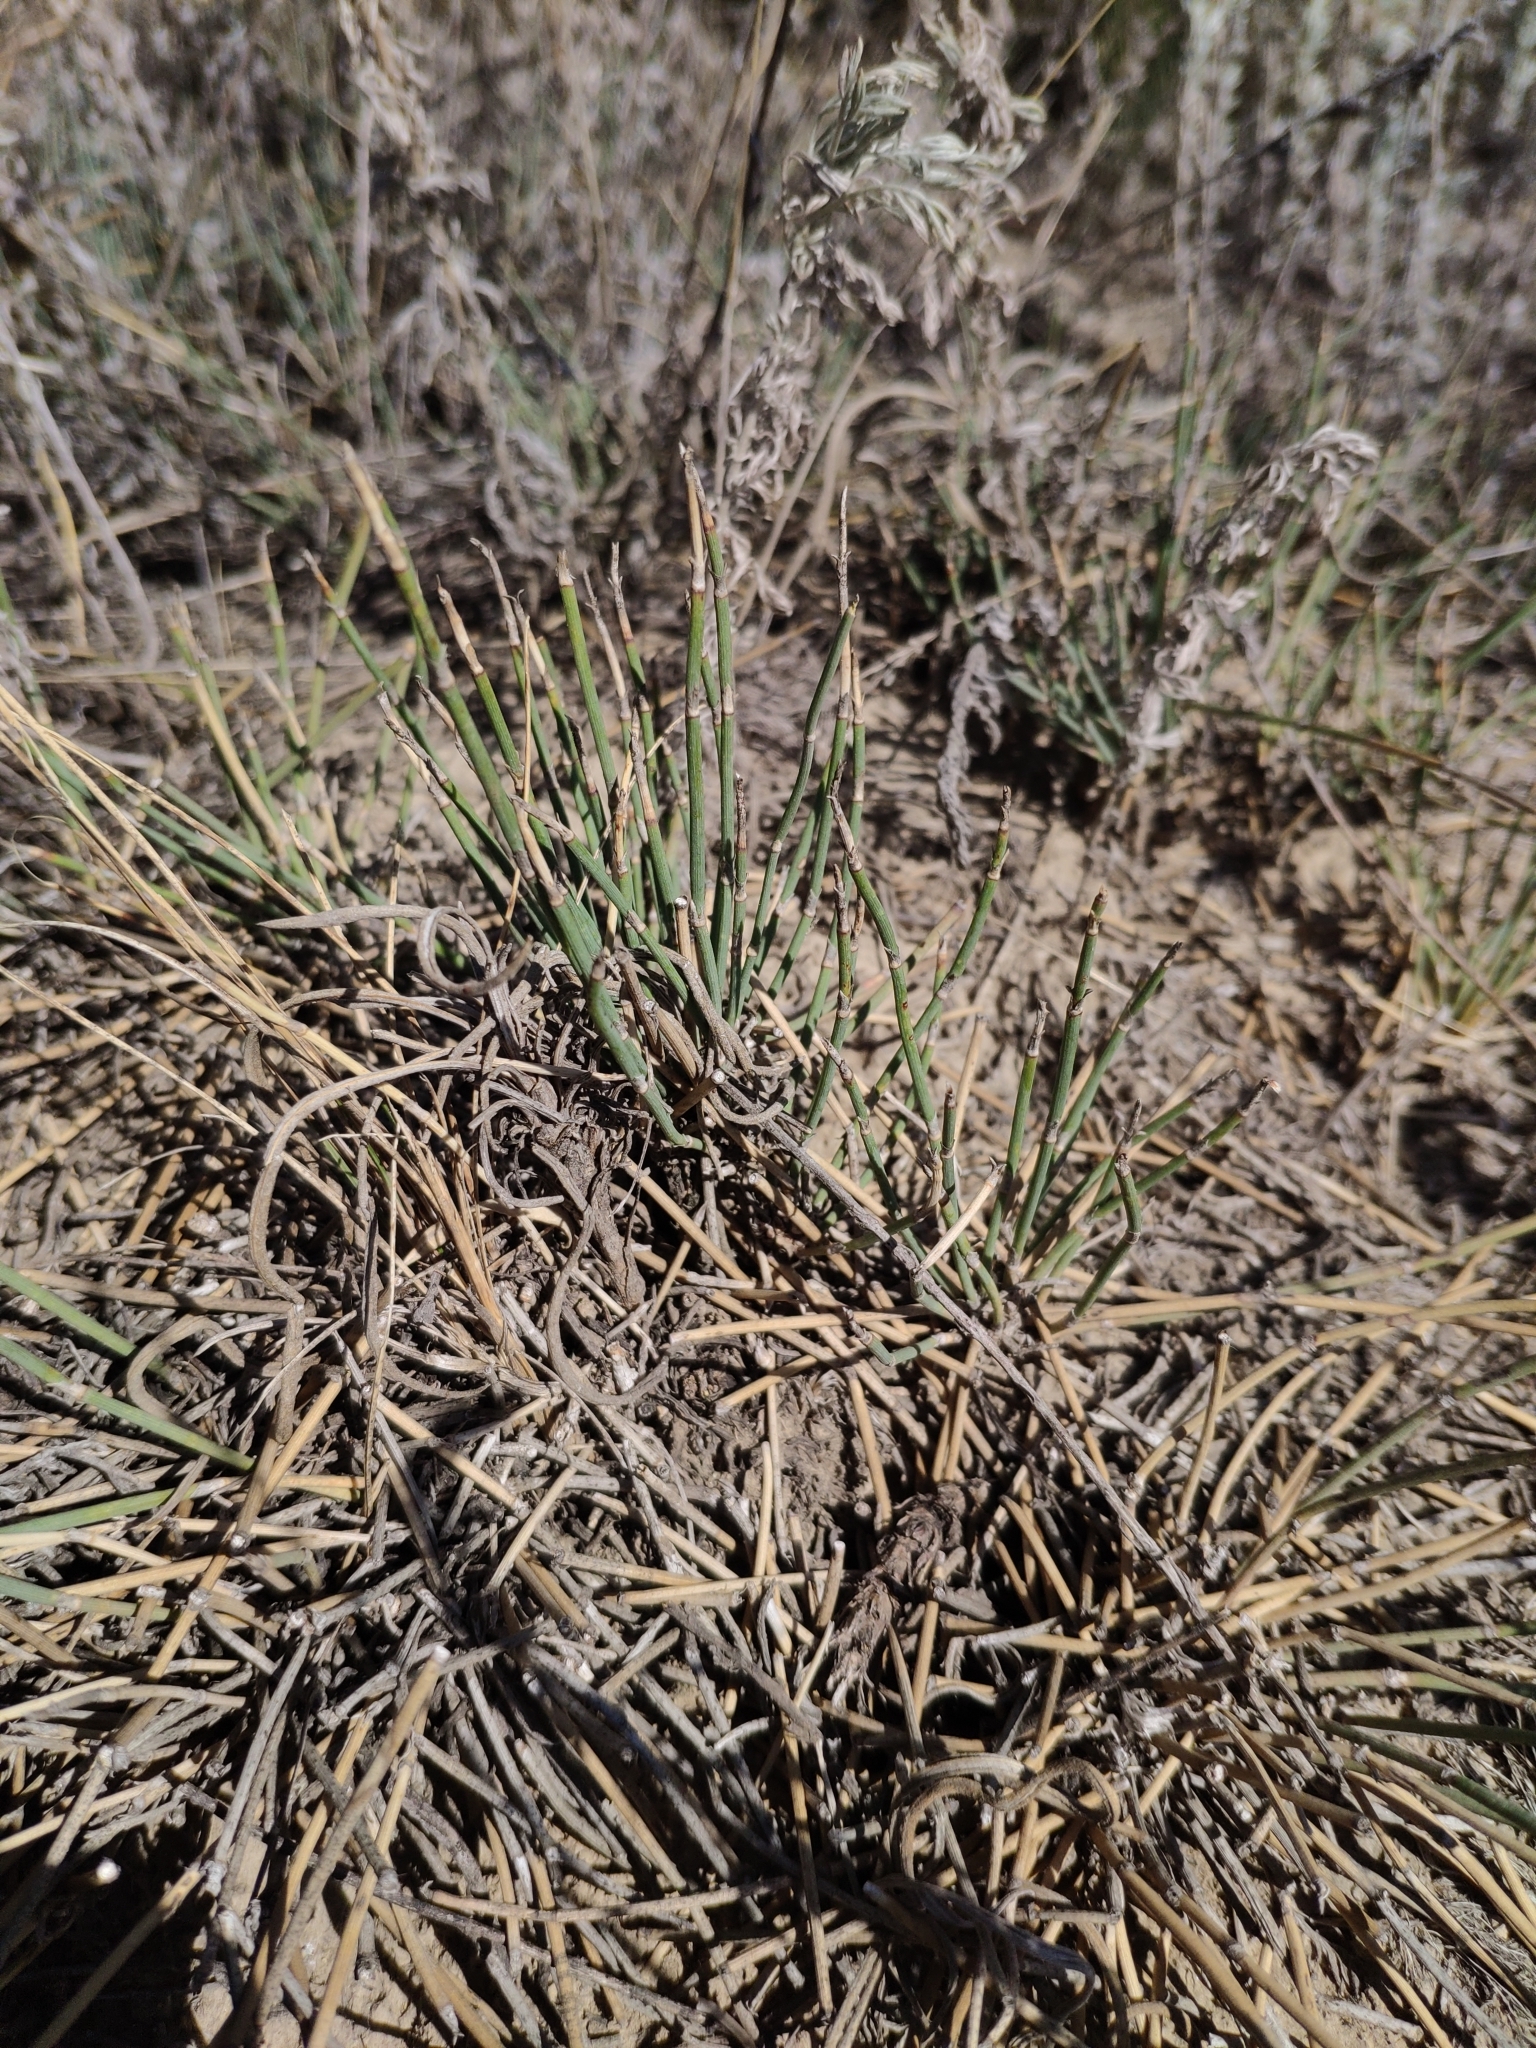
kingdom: Plantae
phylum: Tracheophyta
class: Gnetopsida
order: Ephedrales
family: Ephedraceae
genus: Ephedra
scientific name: Ephedra distachya
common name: Sea grape
